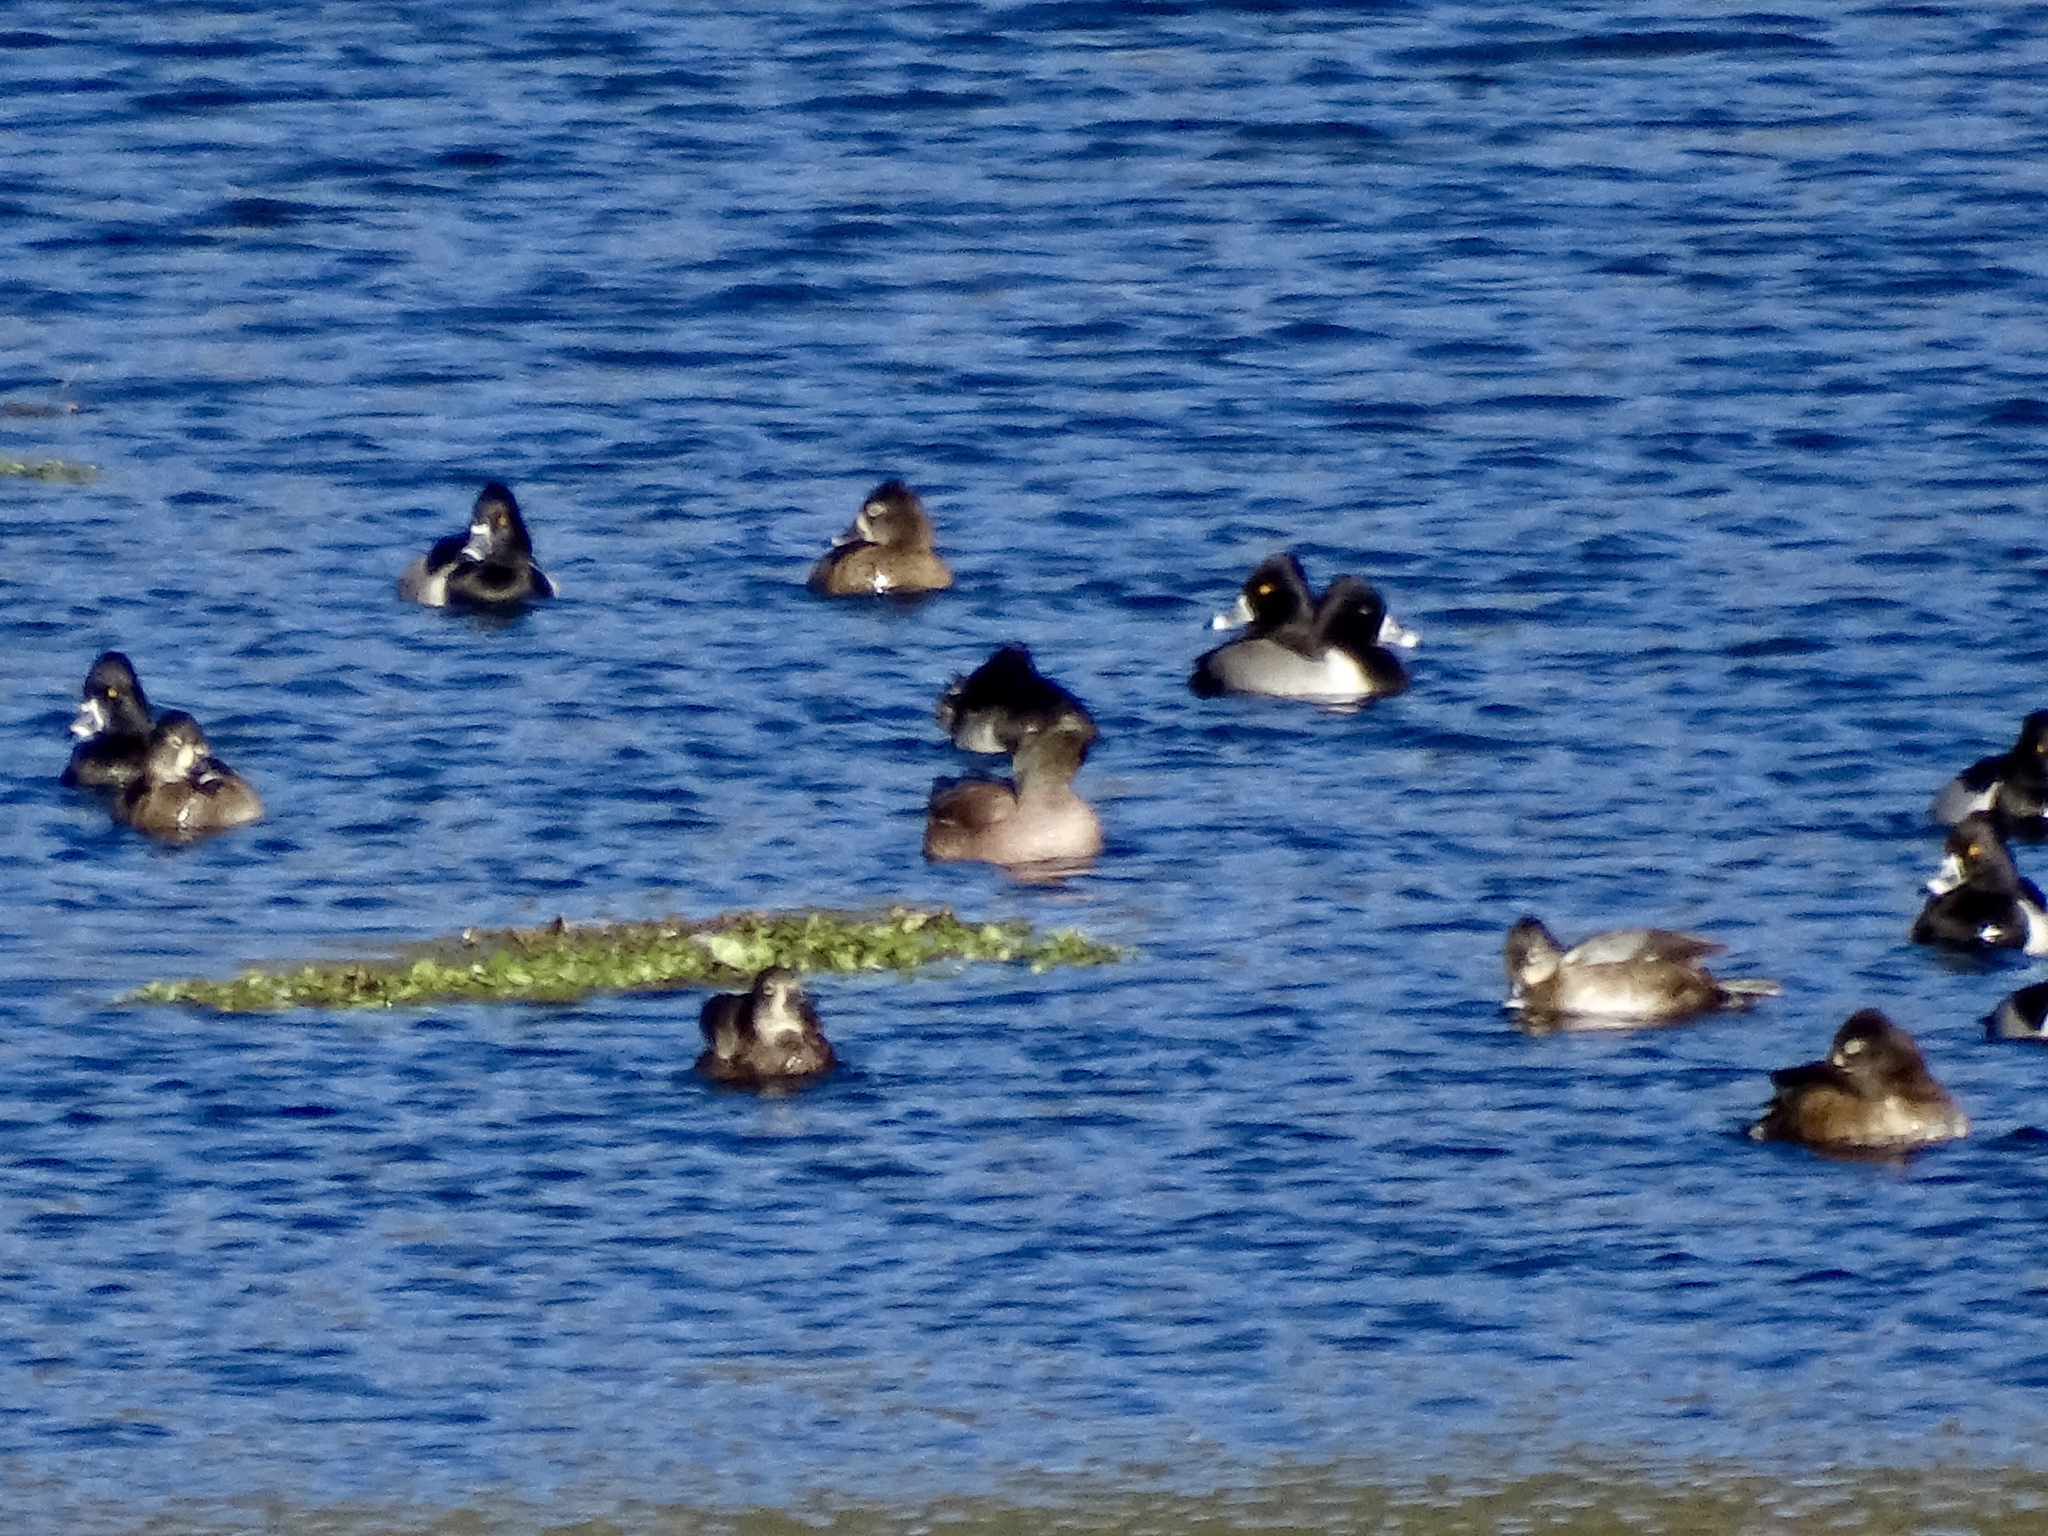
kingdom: Animalia
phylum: Chordata
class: Aves
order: Anseriformes
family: Anatidae
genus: Aythya
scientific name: Aythya collaris
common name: Ring-necked duck
